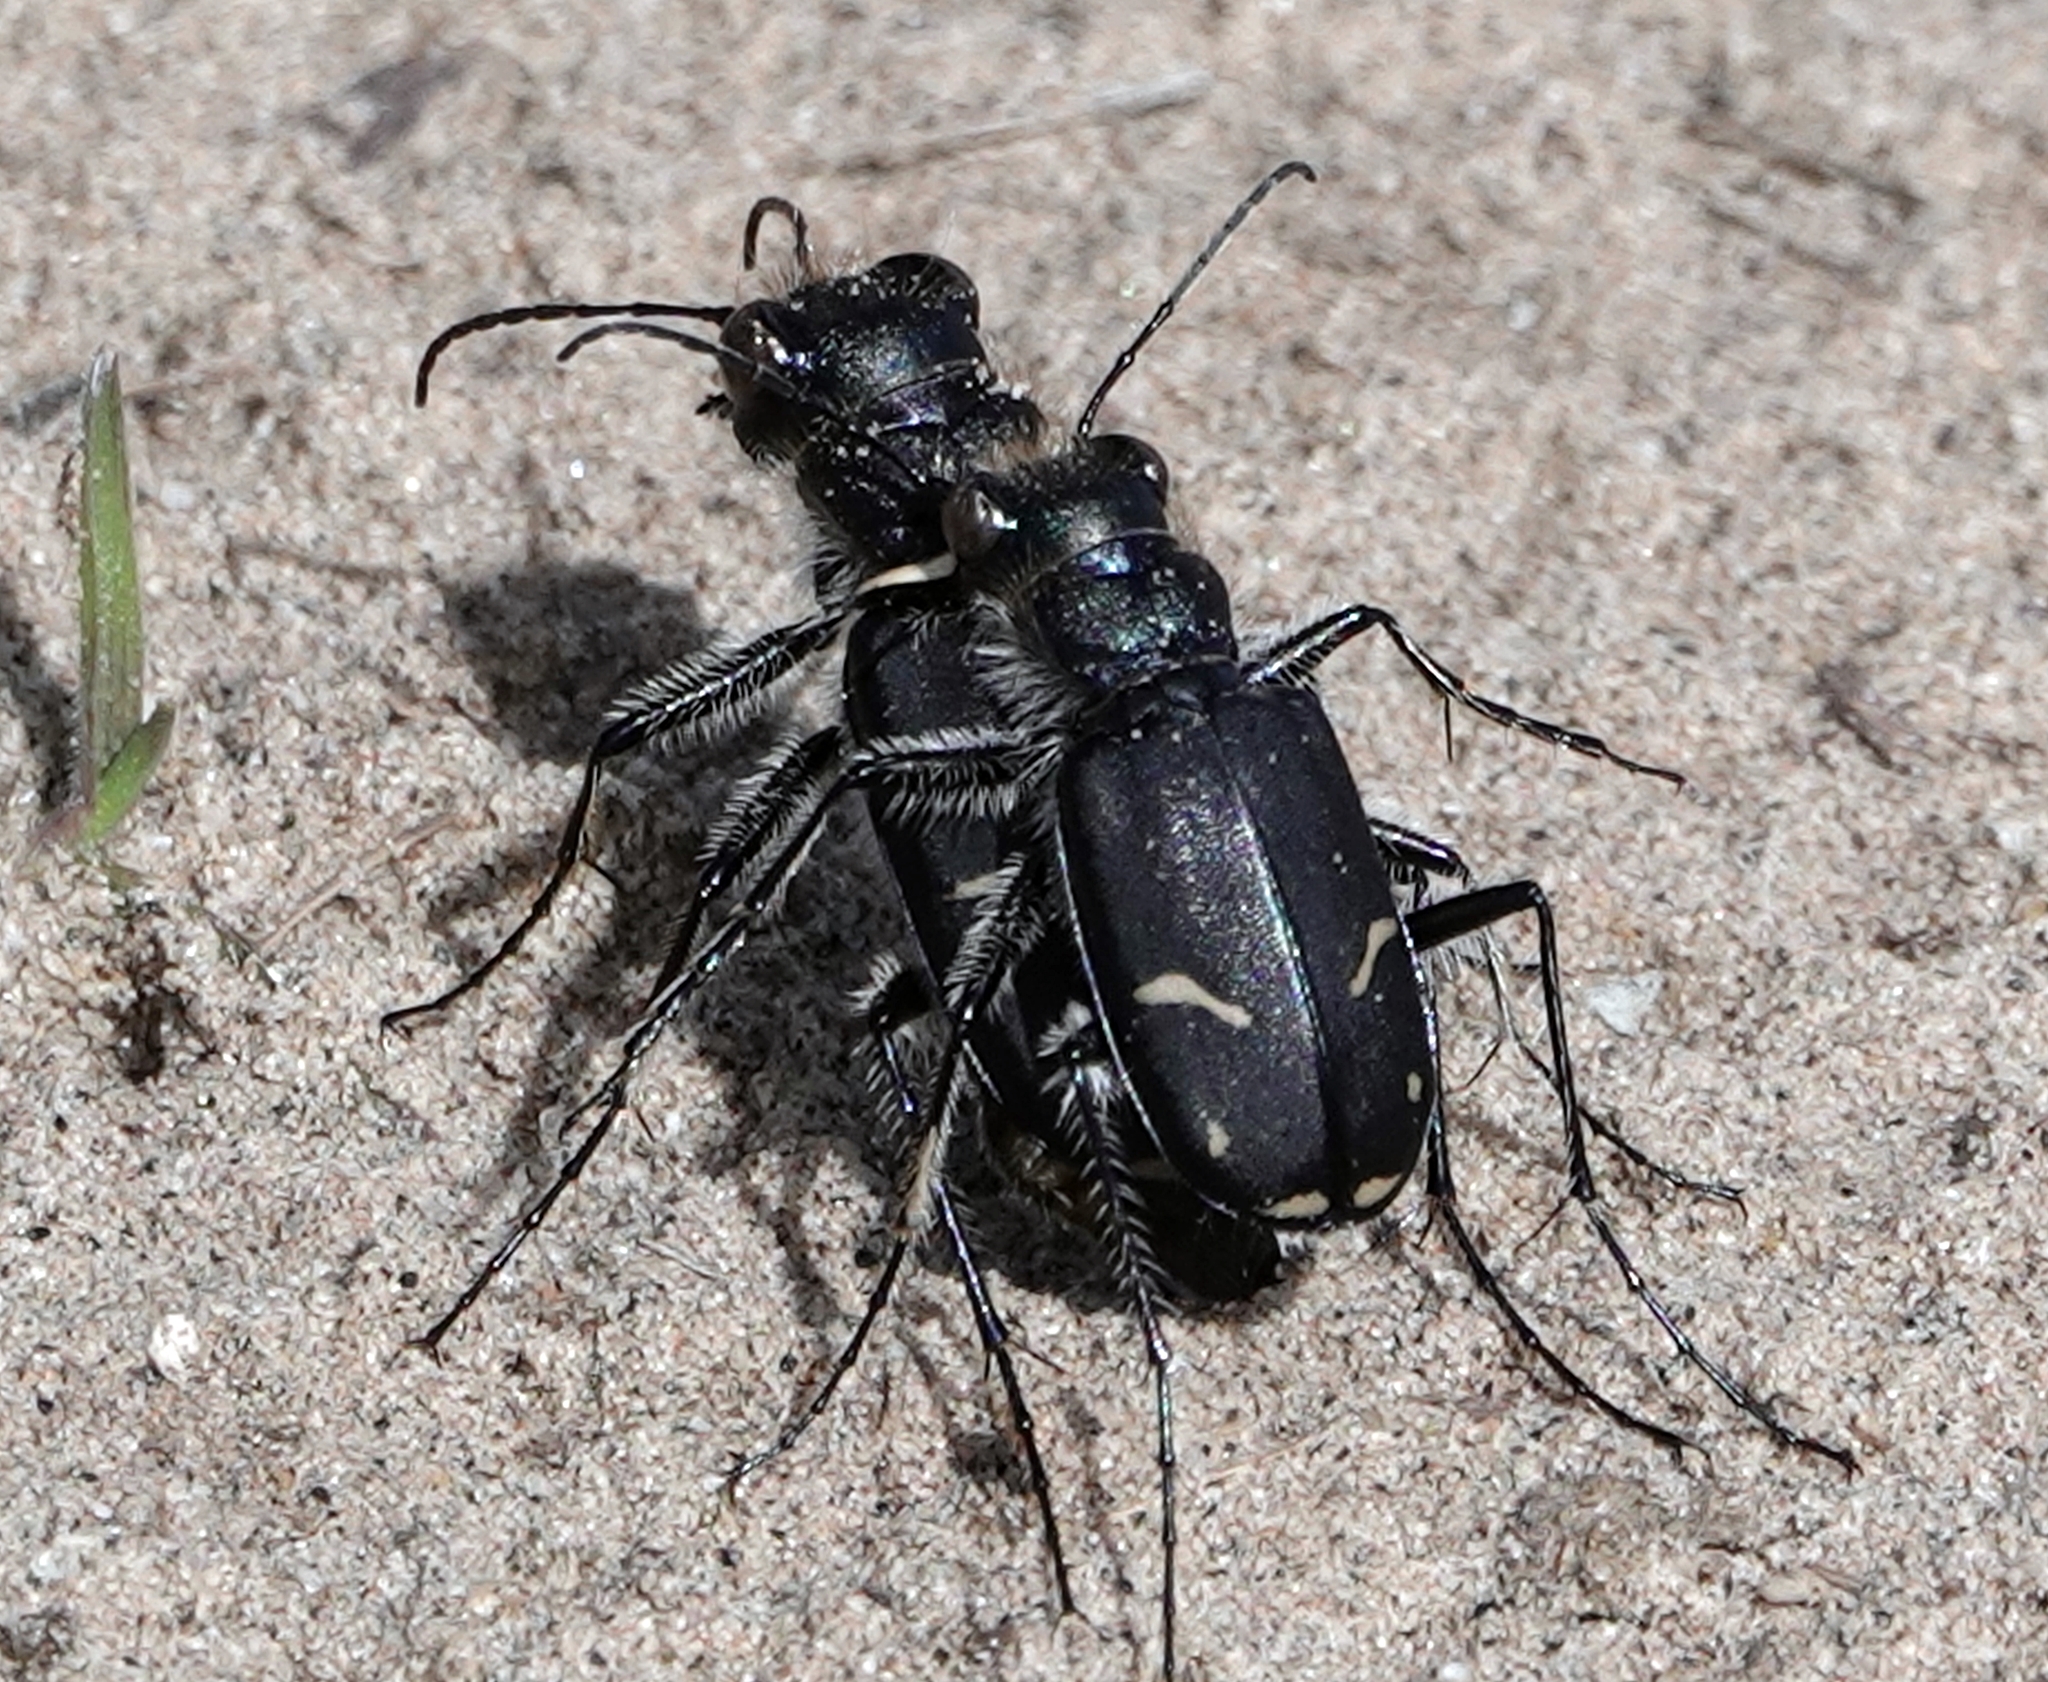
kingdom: Animalia
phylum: Arthropoda
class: Insecta
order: Coleoptera
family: Carabidae
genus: Cicindela
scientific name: Cicindela purpurea
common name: Cow path tiger beetle
